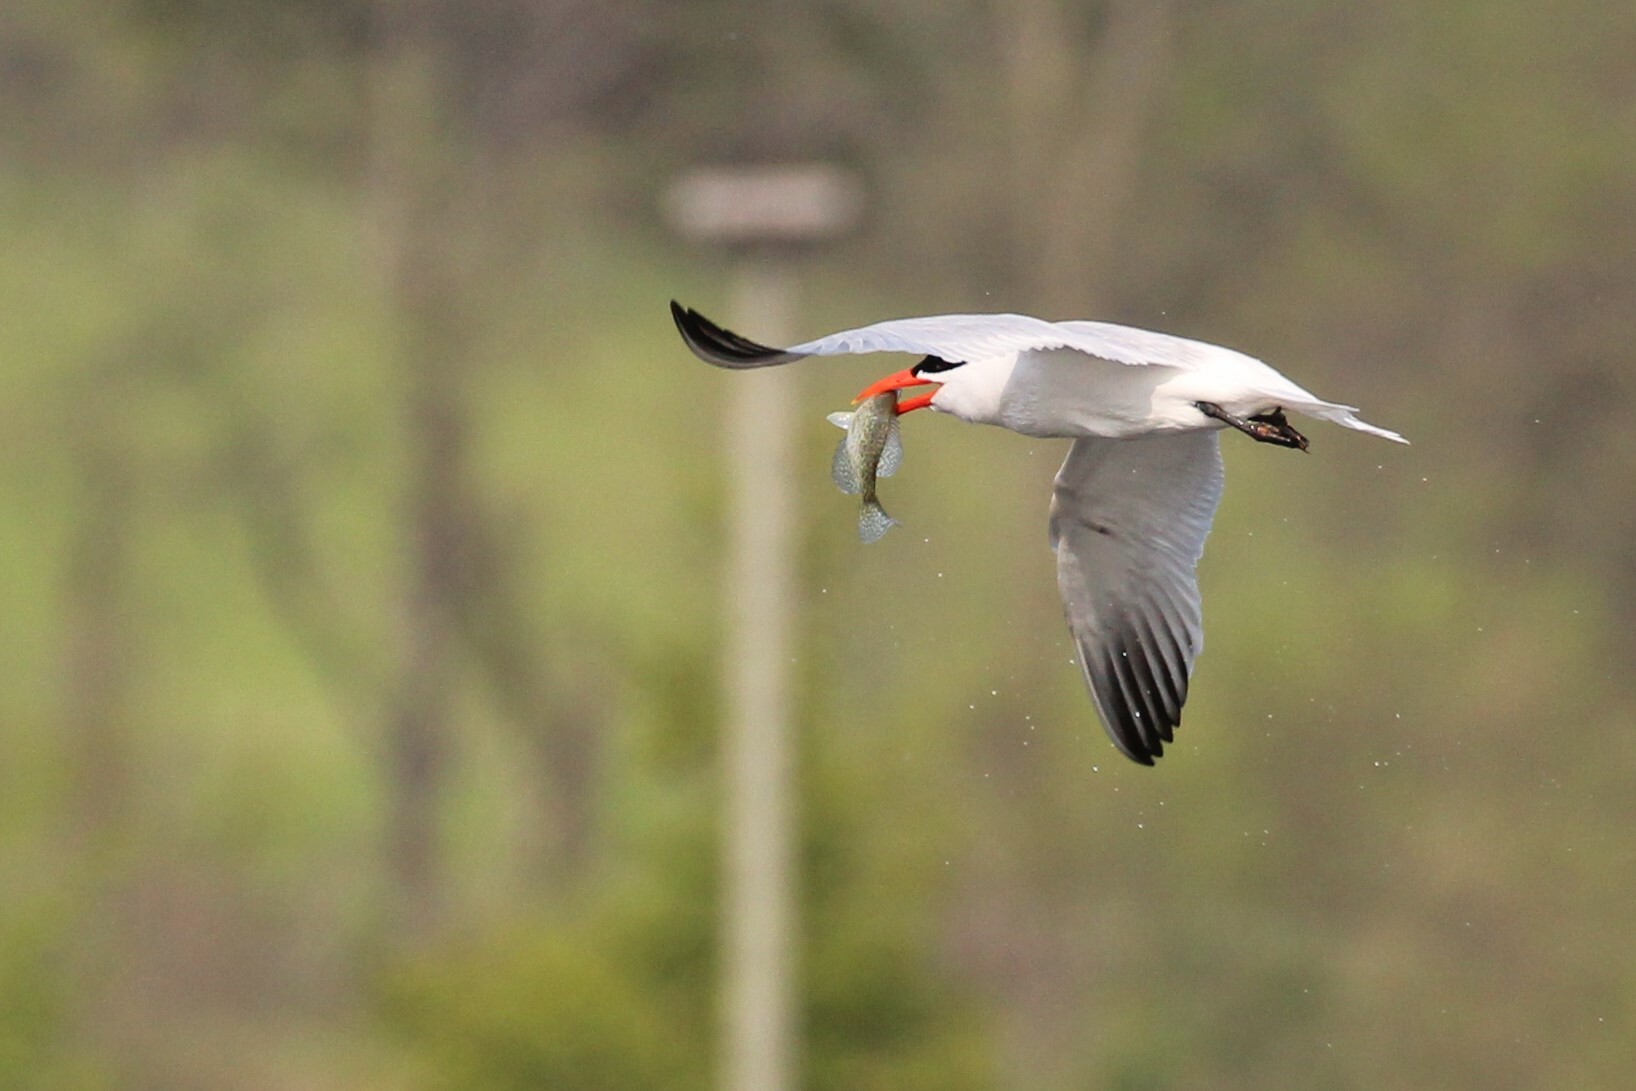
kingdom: Animalia
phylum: Chordata
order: Perciformes
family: Centrarchidae
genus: Pomoxis
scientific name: Pomoxis nigromaculatus
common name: Black crappie
